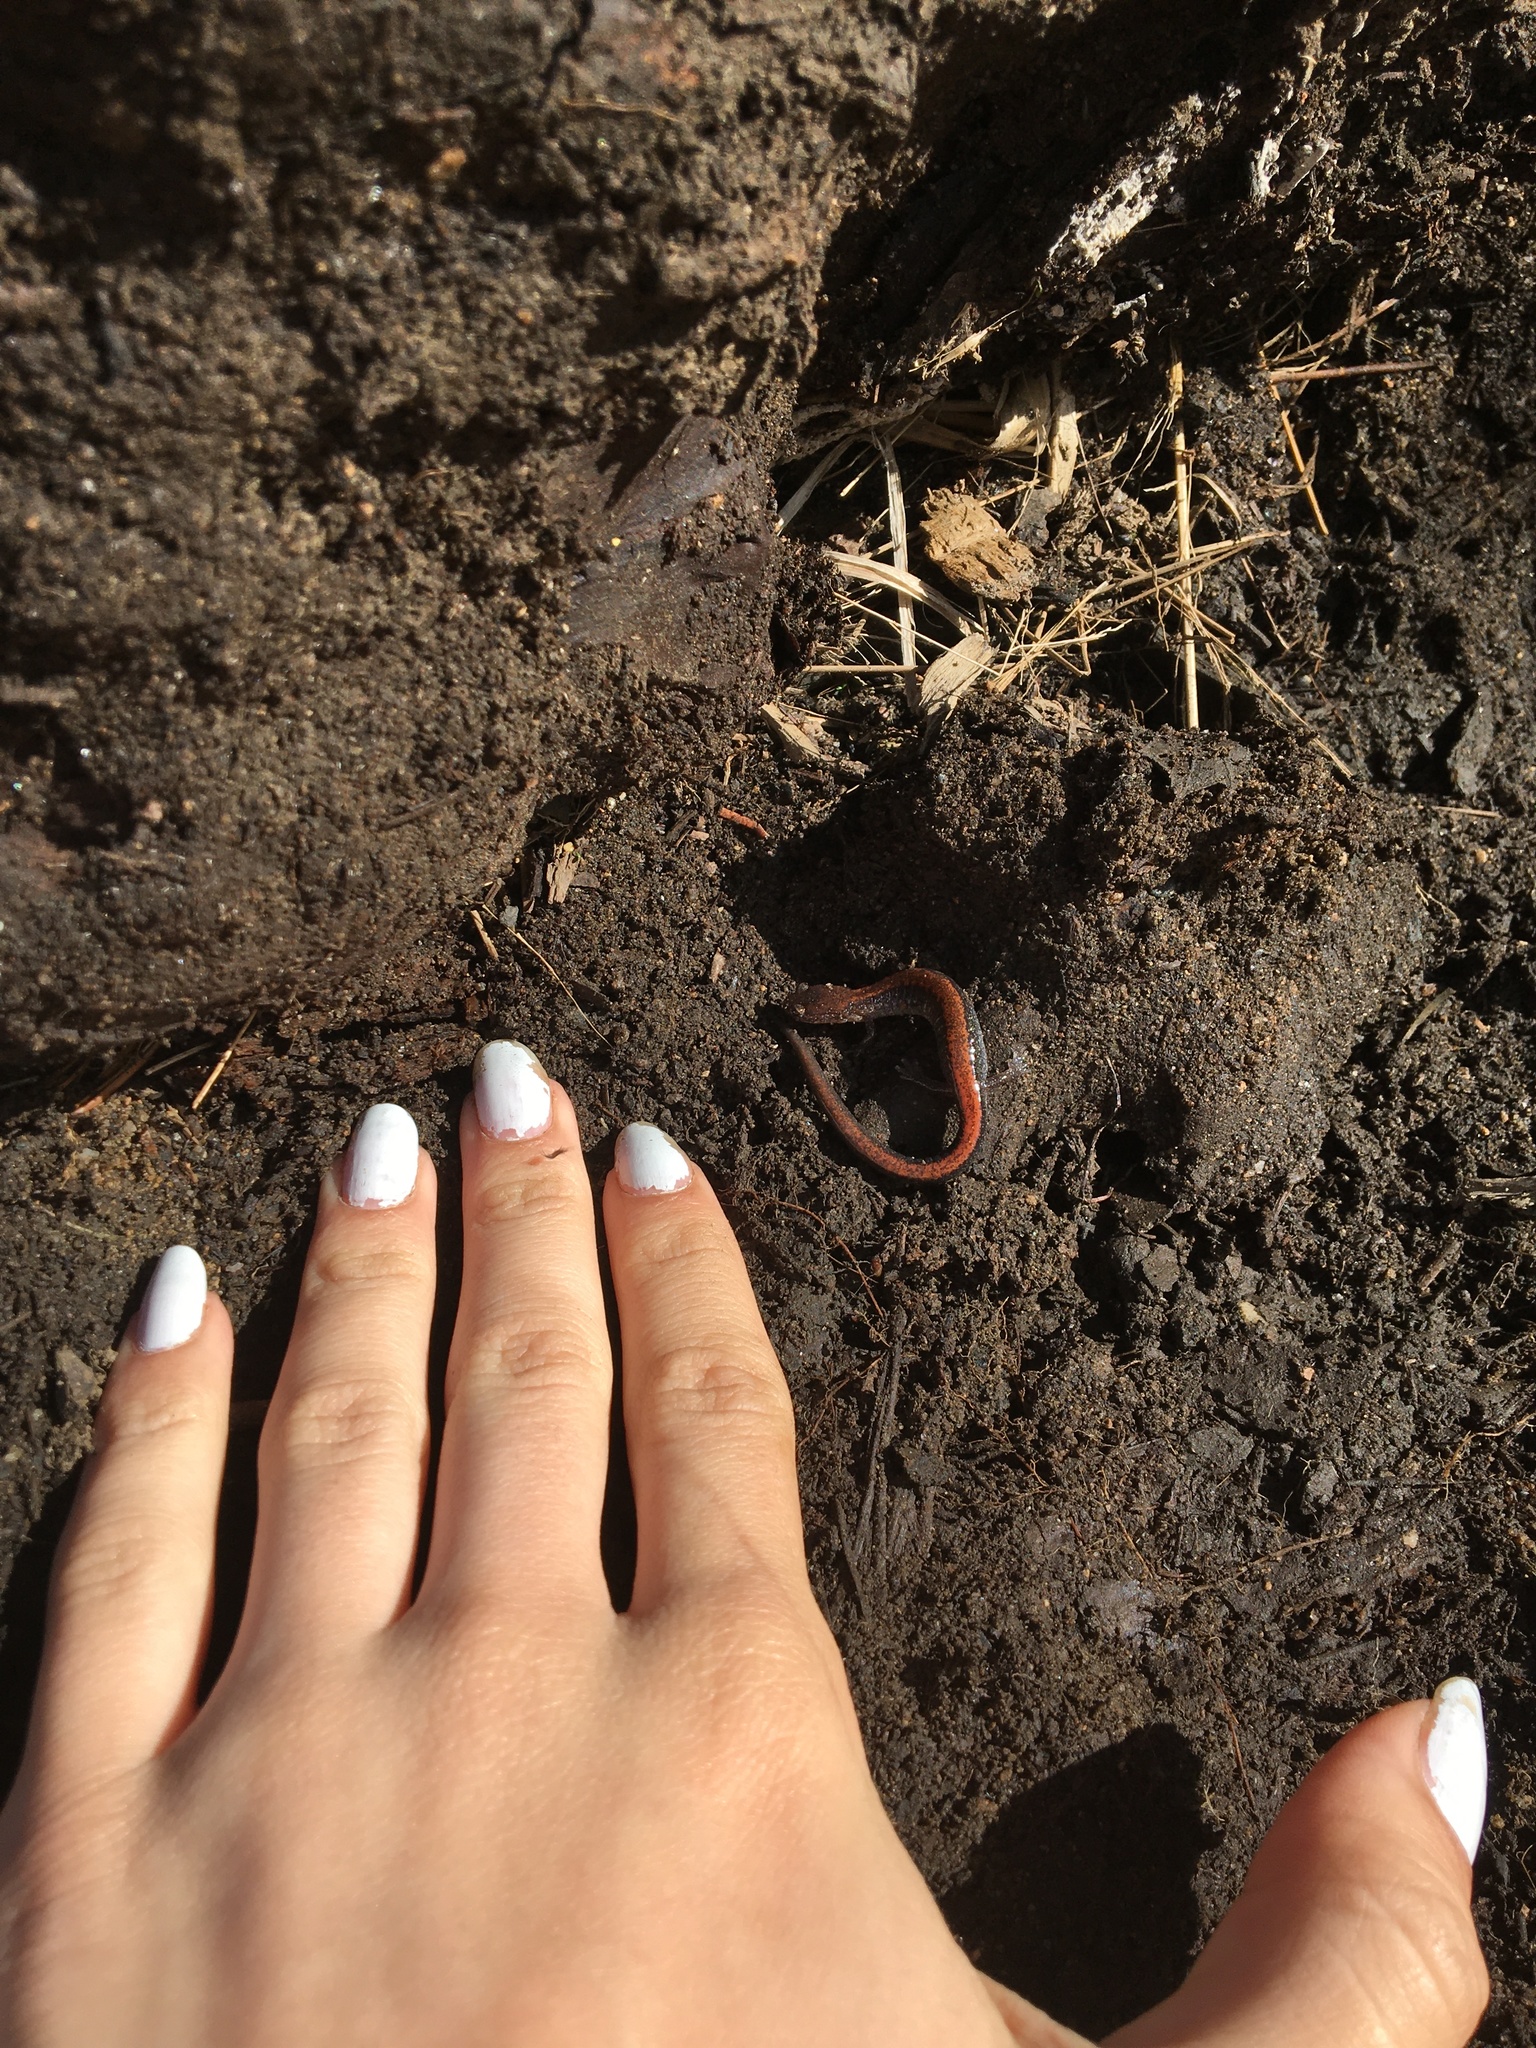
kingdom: Animalia
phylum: Chordata
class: Amphibia
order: Caudata
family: Plethodontidae
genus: Plethodon
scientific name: Plethodon cinereus
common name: Redback salamander
